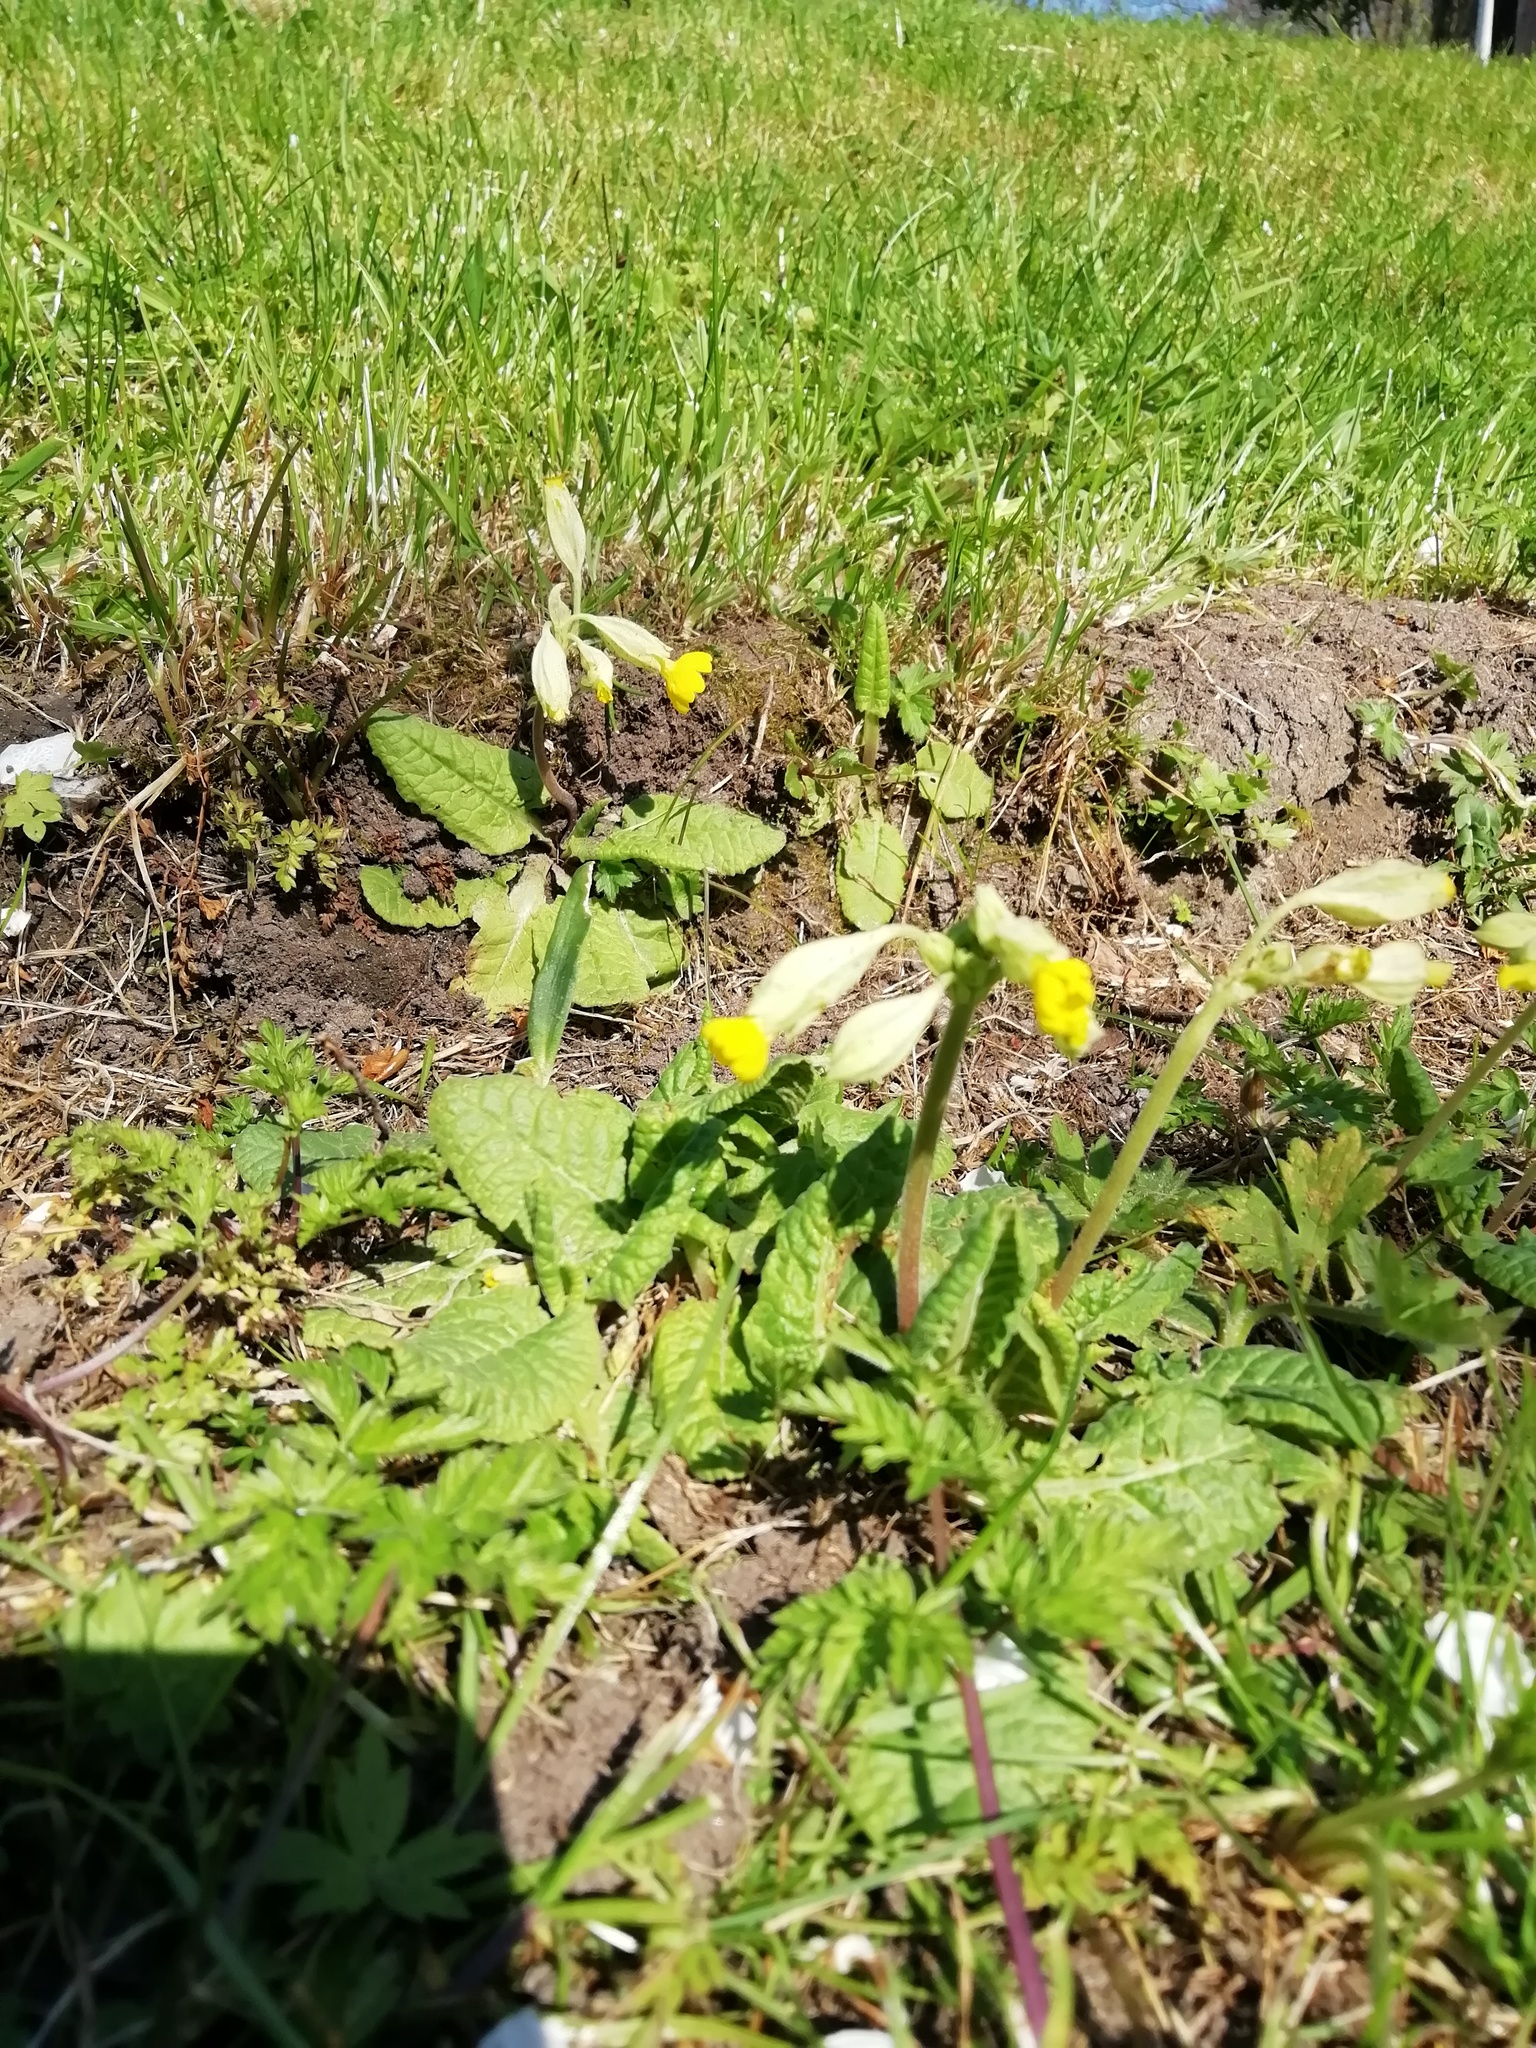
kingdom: Plantae
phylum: Tracheophyta
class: Magnoliopsida
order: Ericales
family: Primulaceae
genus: Primula
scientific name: Primula veris
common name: Cowslip
